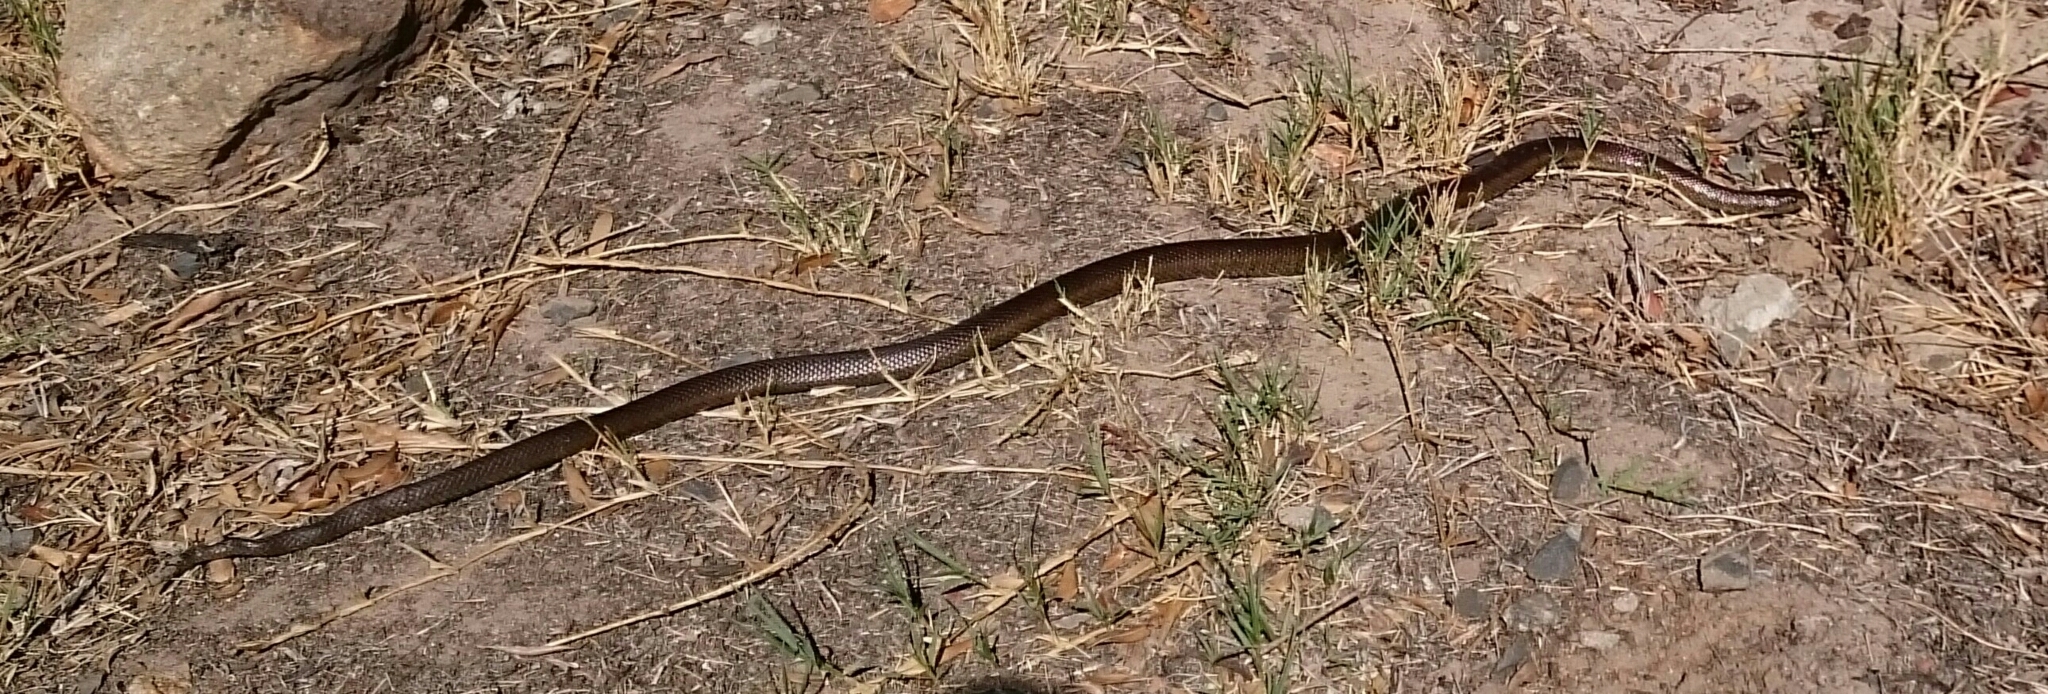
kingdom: Animalia
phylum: Chordata
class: Squamata
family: Pseudaspididae
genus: Pseudaspis
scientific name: Pseudaspis cana
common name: Mole snake
